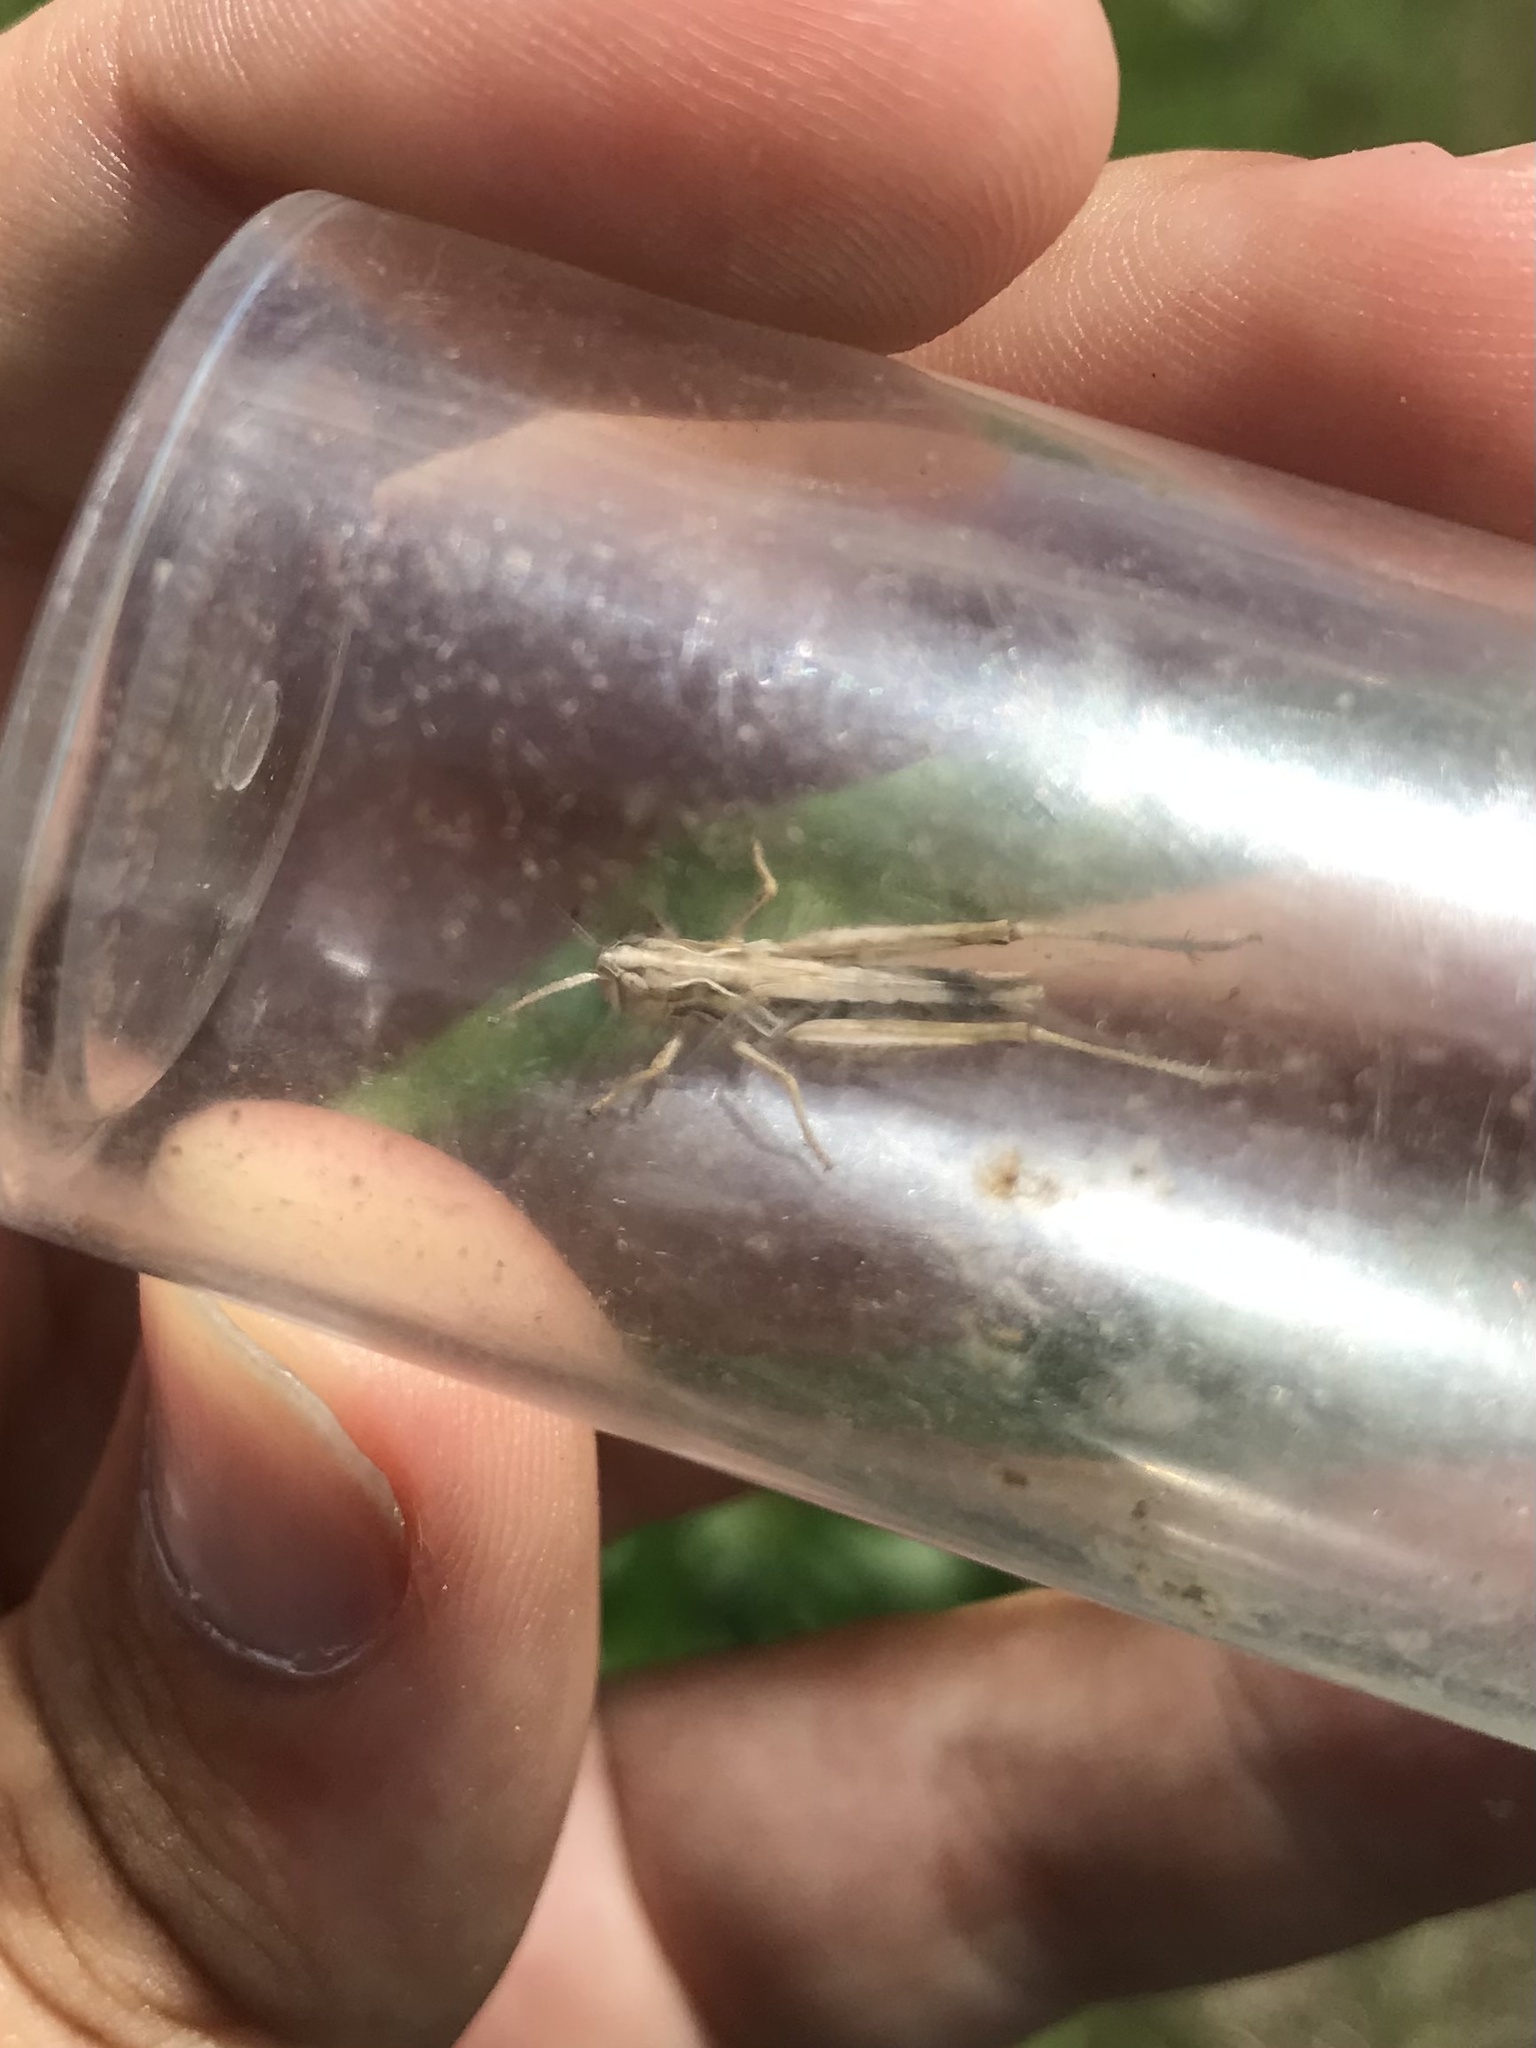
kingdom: Animalia
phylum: Arthropoda
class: Insecta
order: Orthoptera
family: Acrididae
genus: Aeropedellus
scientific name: Aeropedellus clavatus
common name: Clubhorned grasshopper
